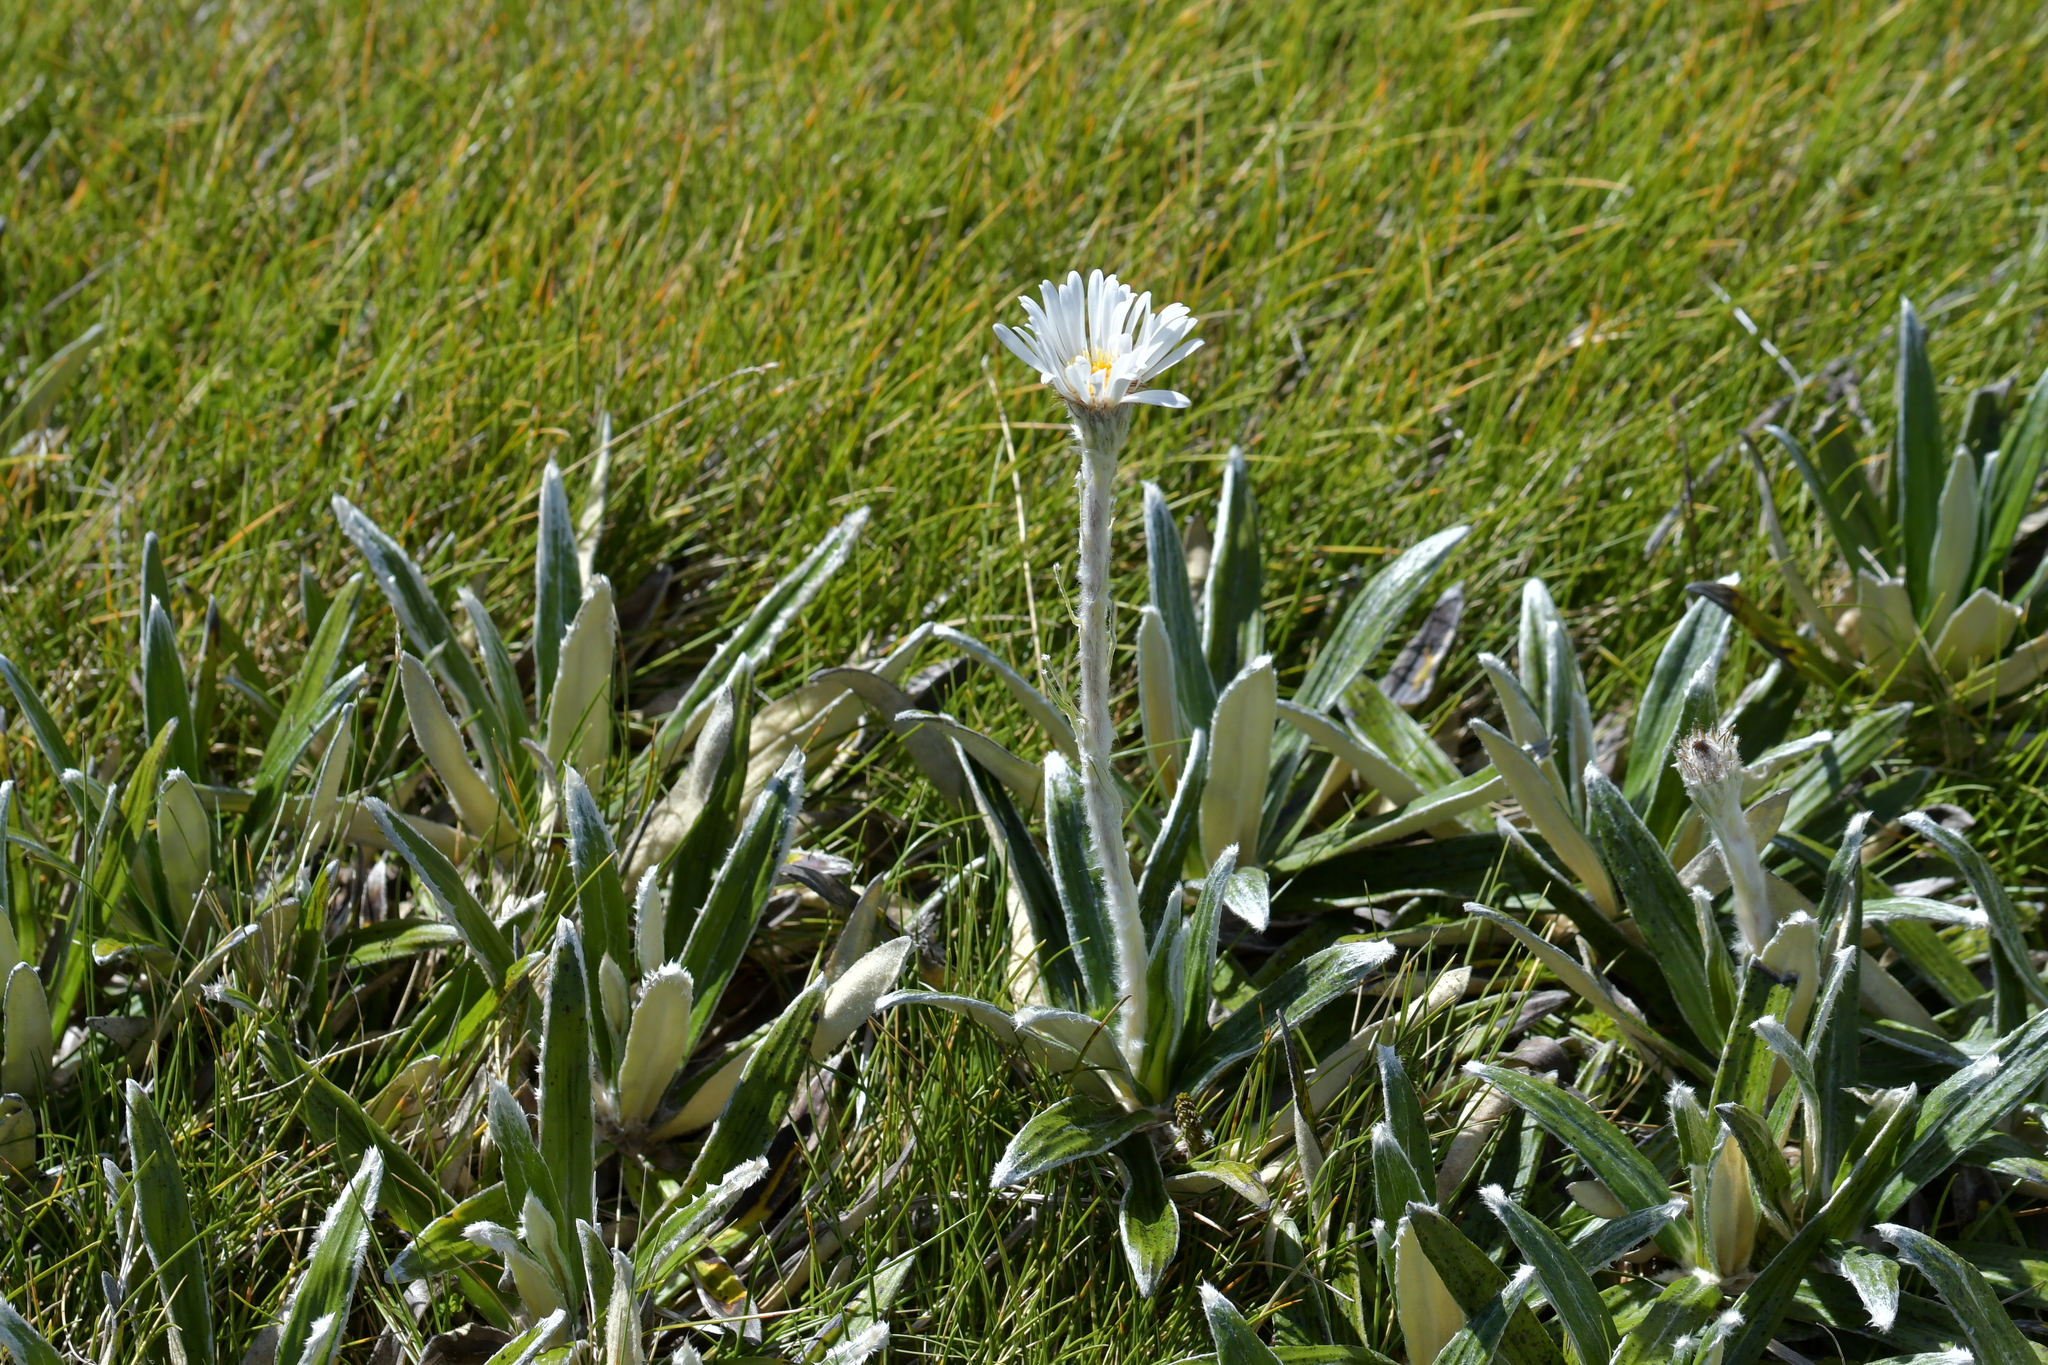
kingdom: Plantae
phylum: Tracheophyta
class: Magnoliopsida
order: Asterales
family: Asteraceae
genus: Celmisia
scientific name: Celmisia spectabilis
